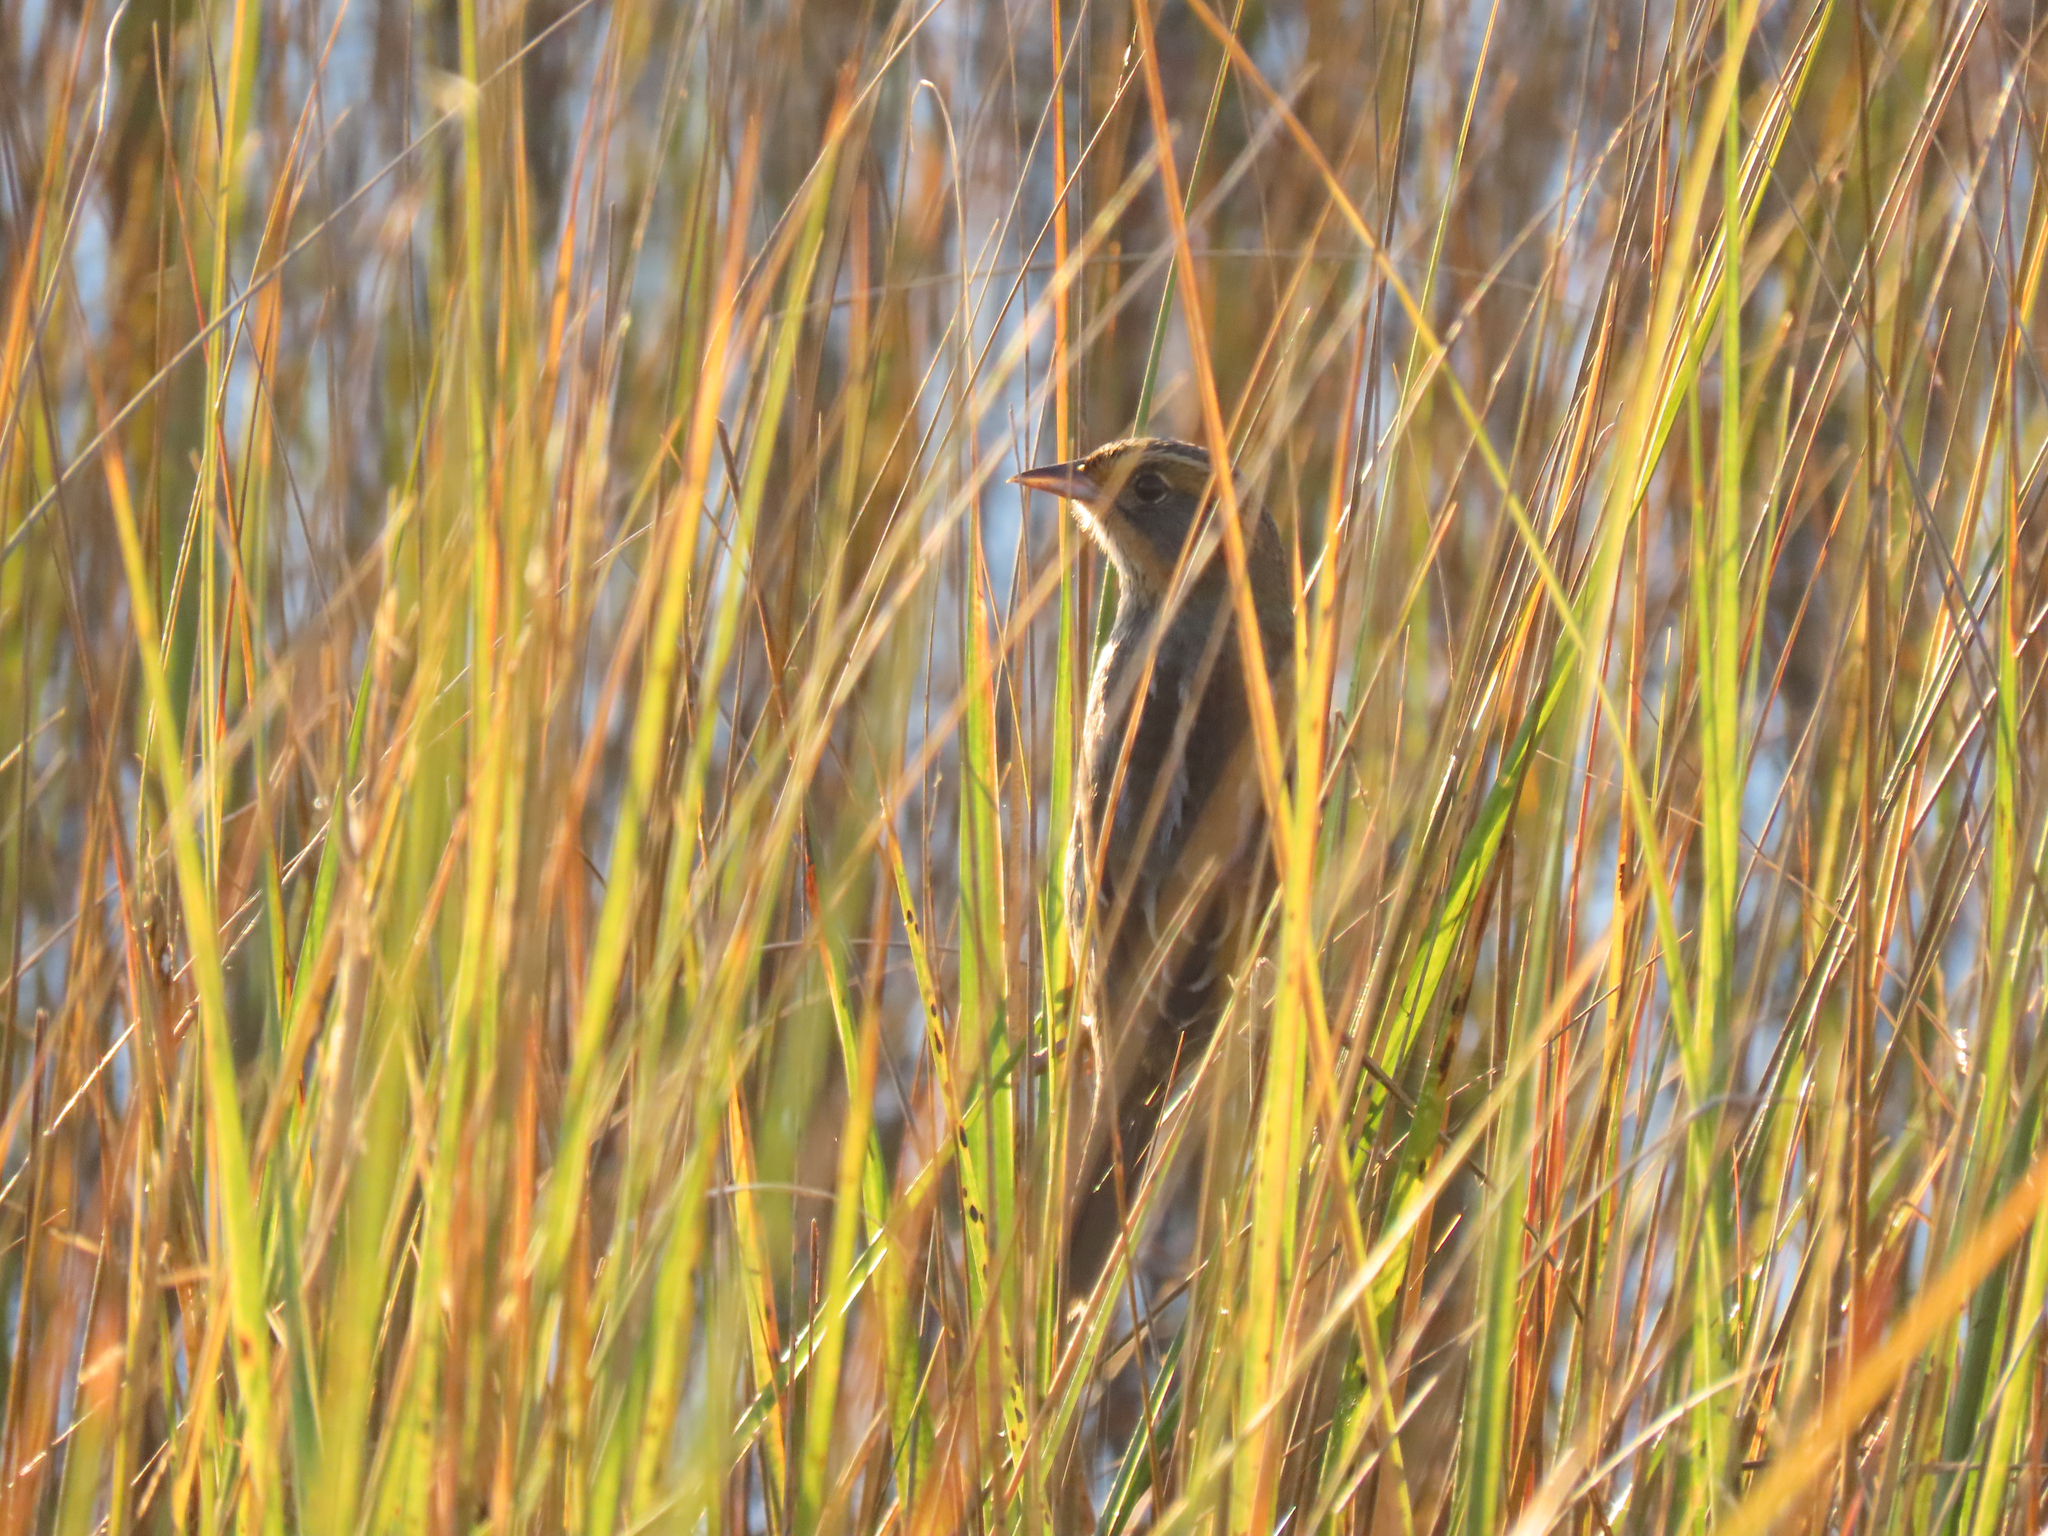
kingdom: Animalia
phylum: Chordata
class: Aves
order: Passeriformes
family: Passerellidae
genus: Ammospiza
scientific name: Ammospiza caudacuta
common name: Saltmarsh sparrow
